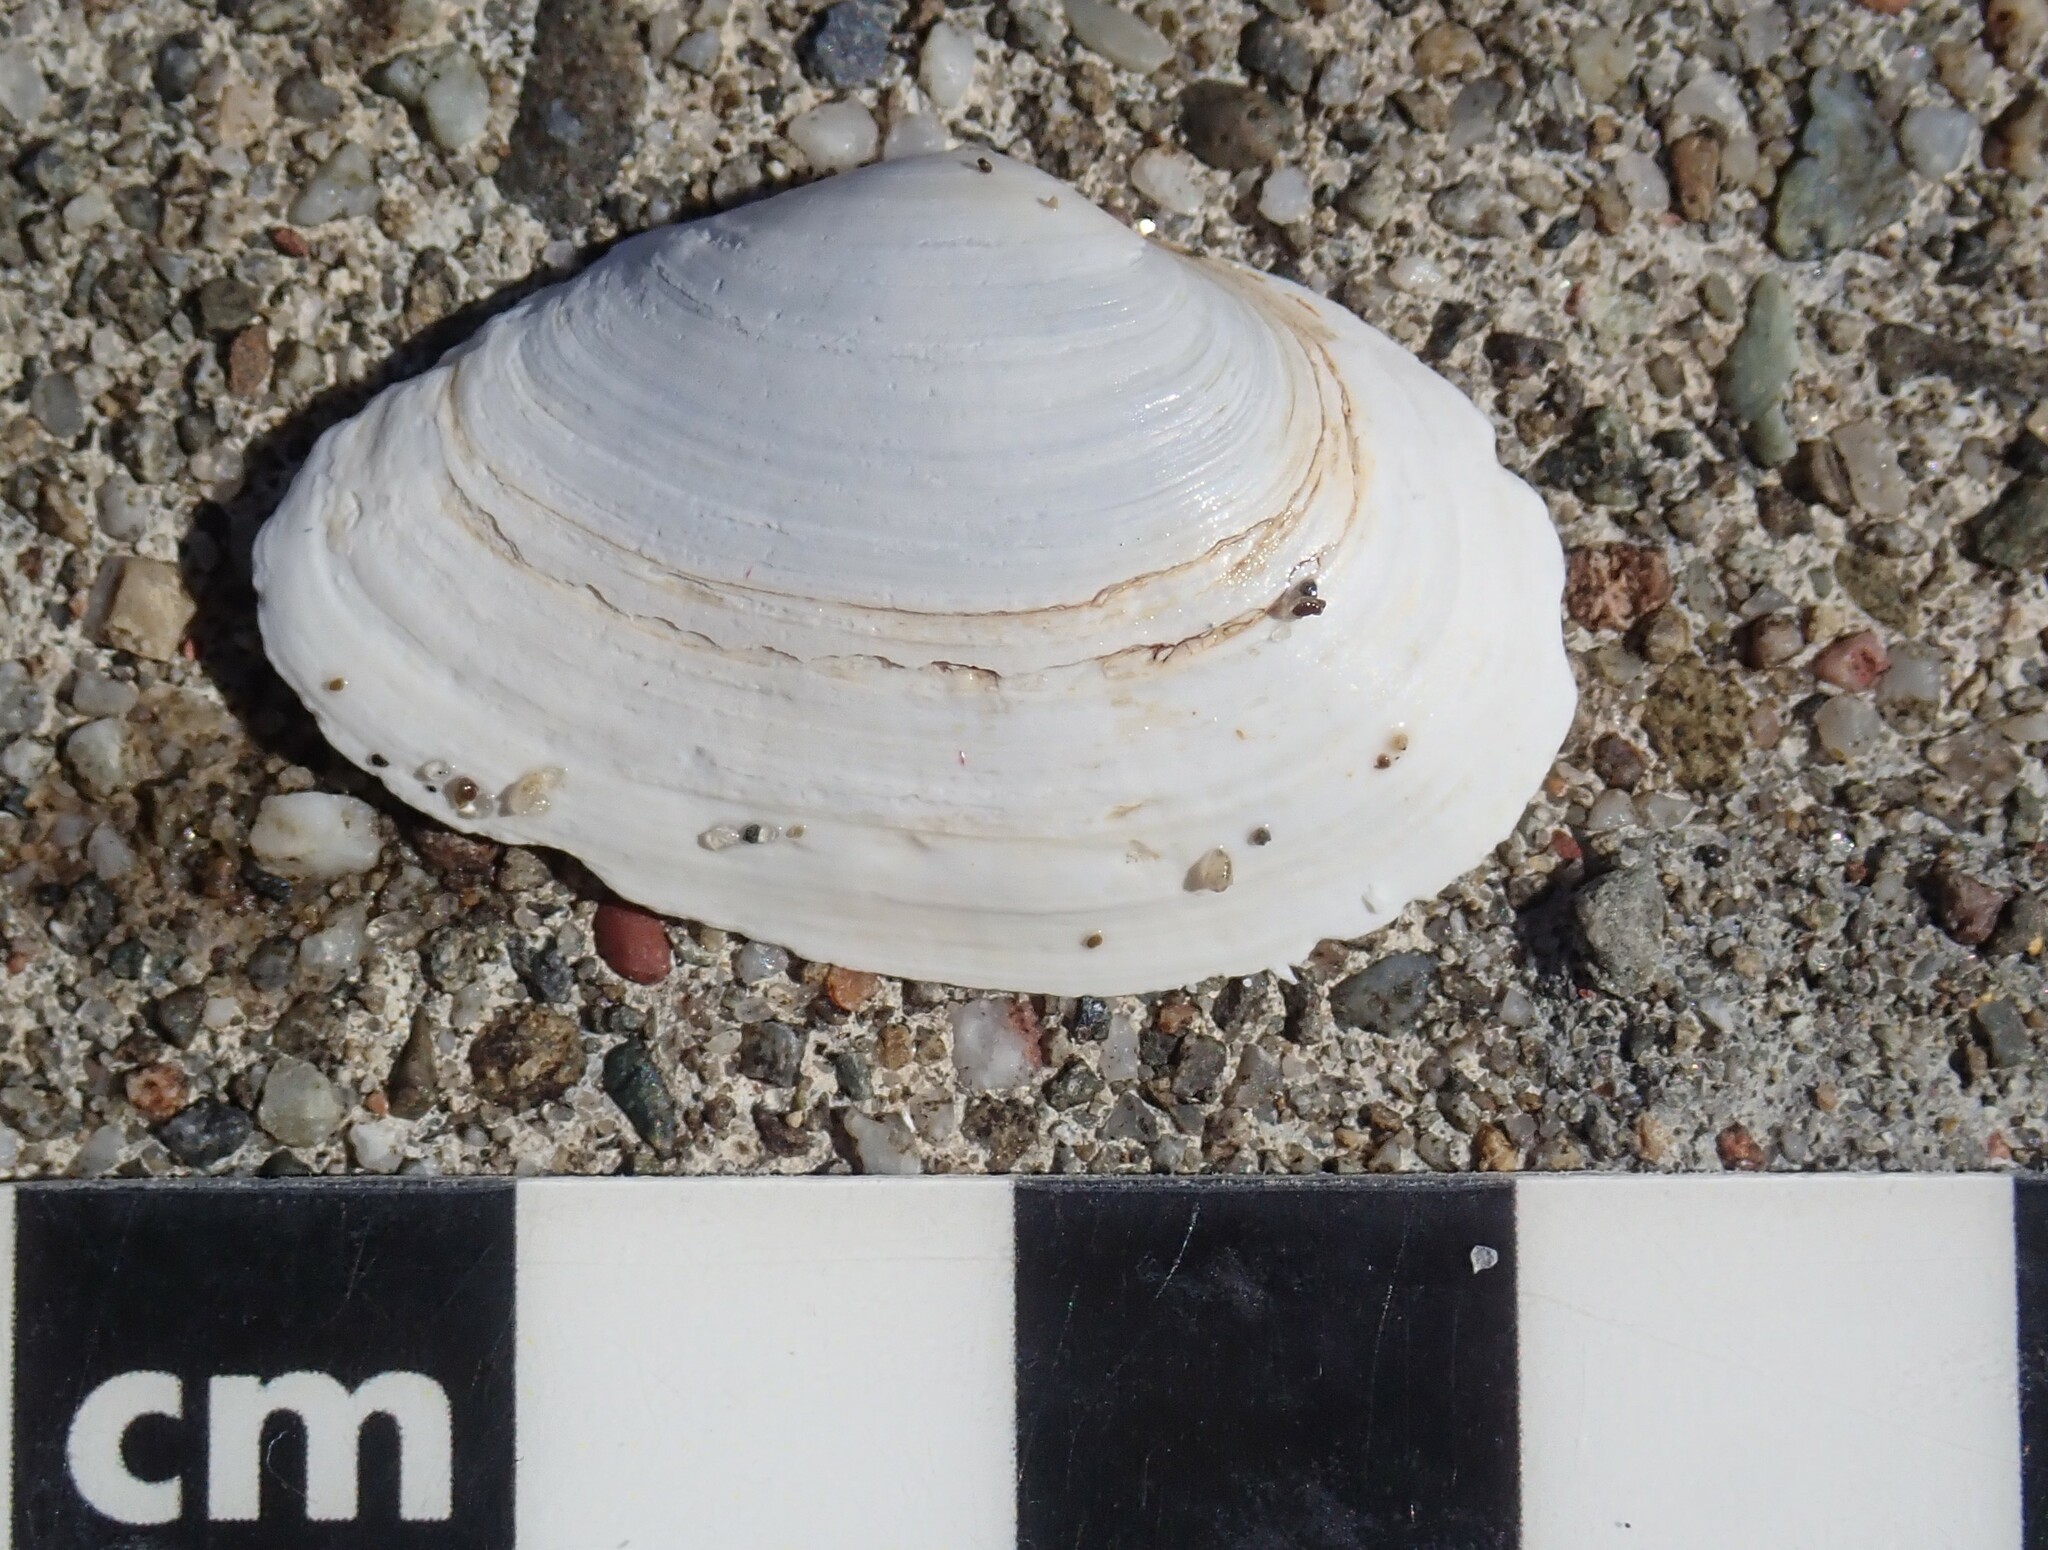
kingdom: Animalia
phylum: Mollusca
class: Bivalvia
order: Myida
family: Myidae
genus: Mya
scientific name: Mya arenaria
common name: Soft-shelled clam
